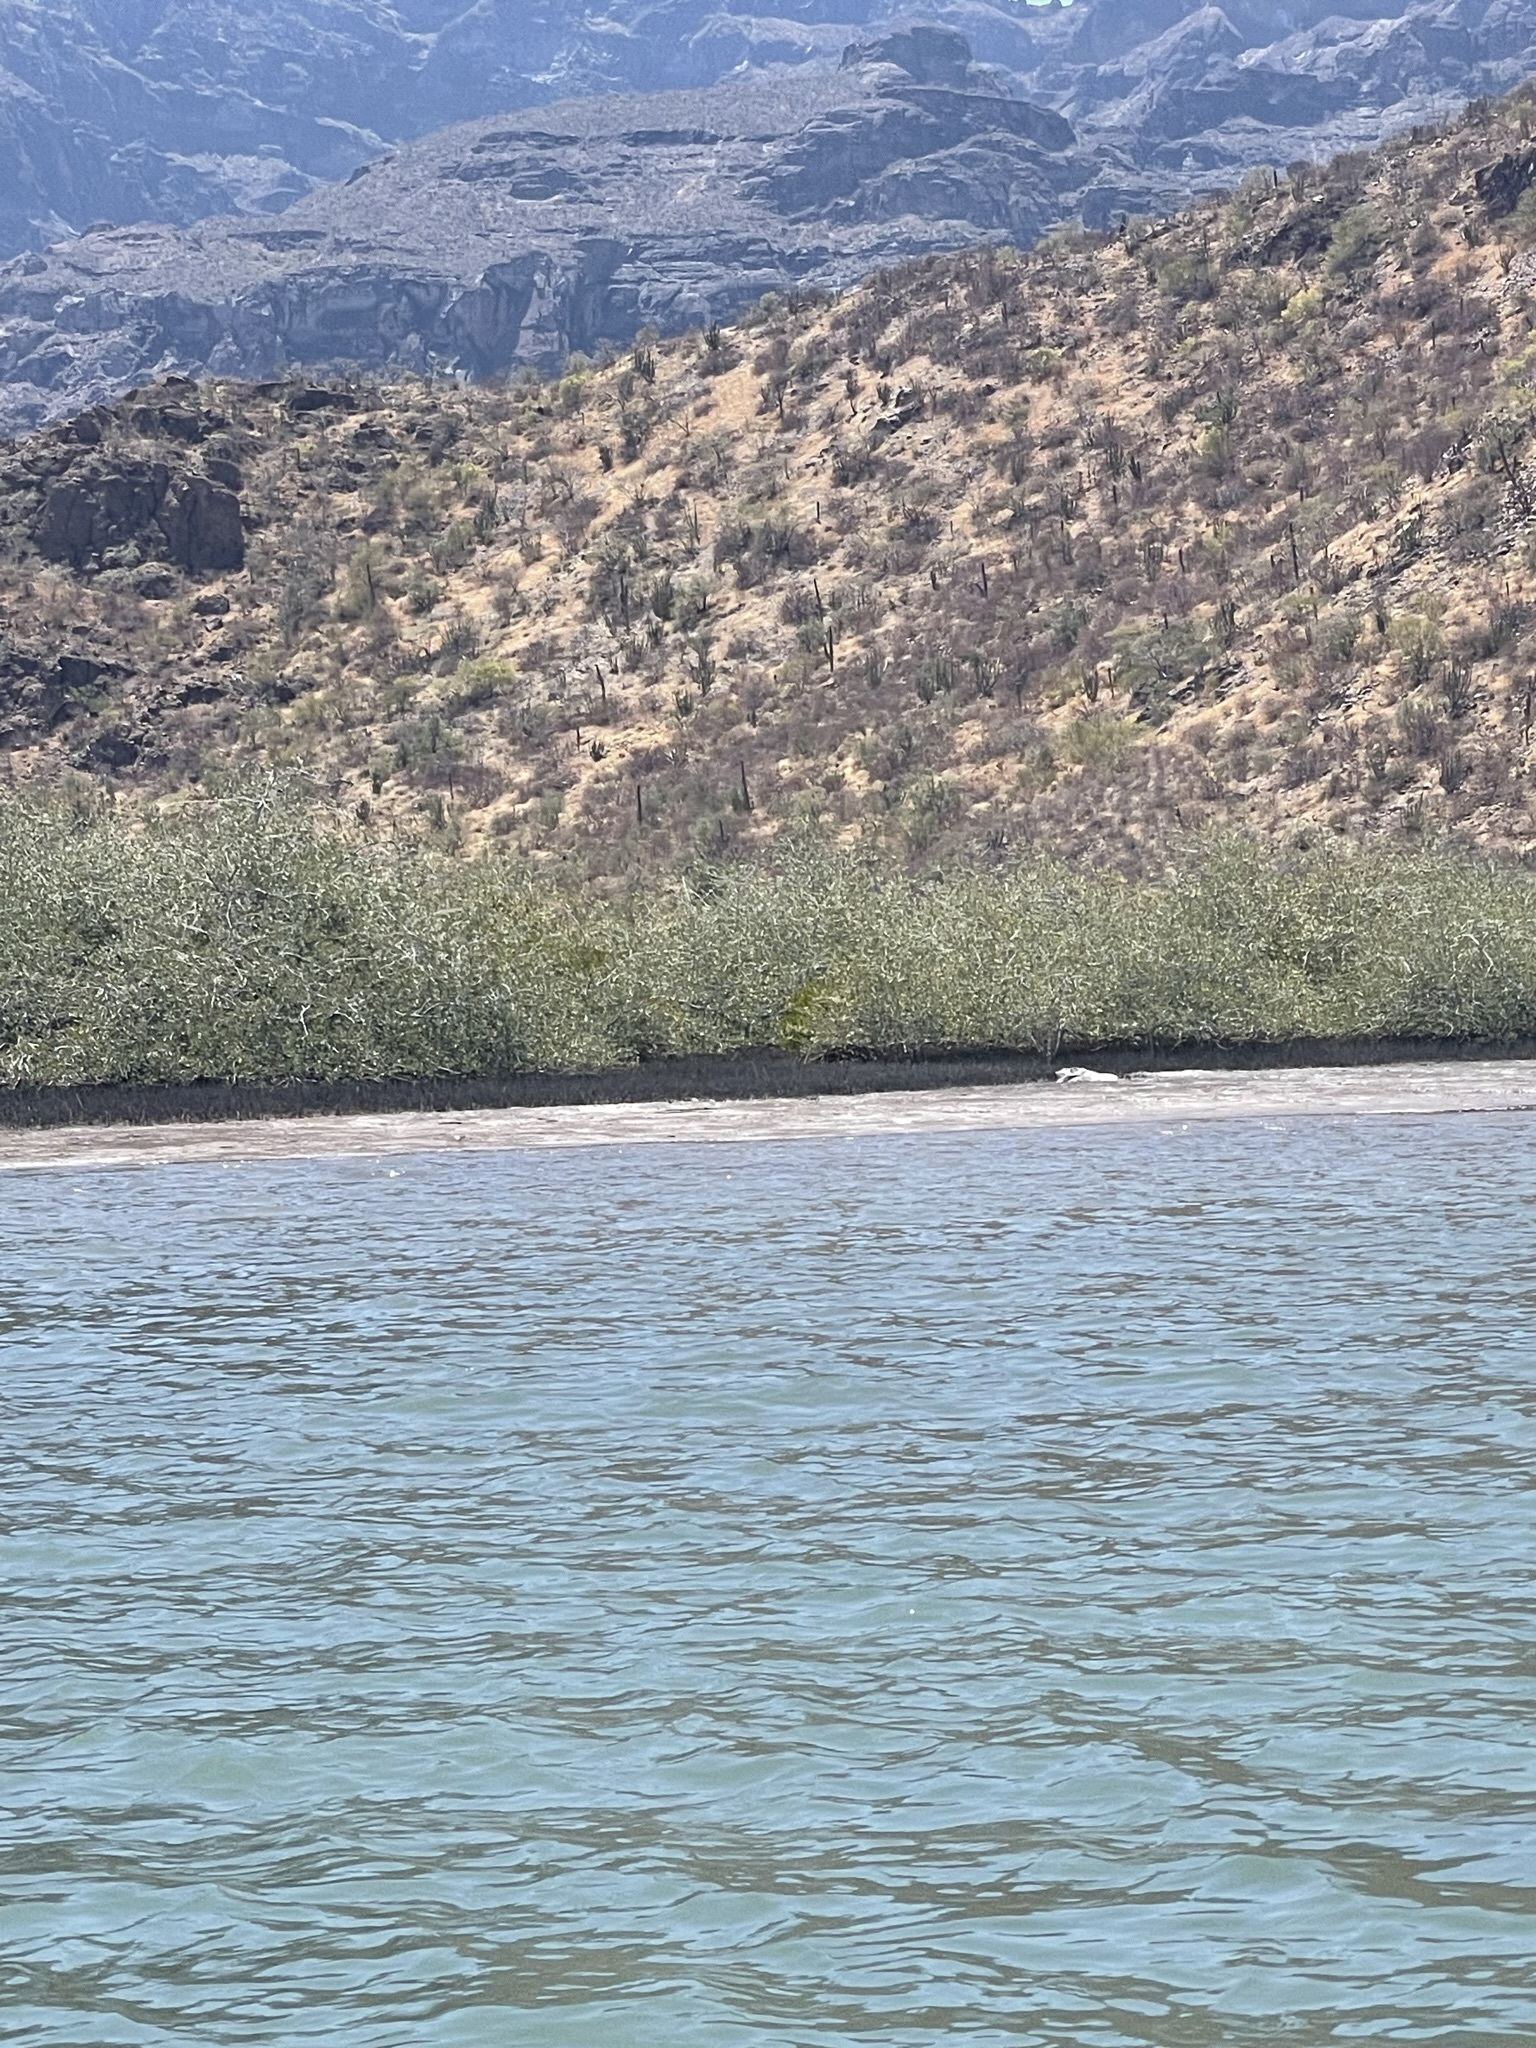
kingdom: Plantae
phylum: Tracheophyta
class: Magnoliopsida
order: Lamiales
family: Acanthaceae
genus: Avicennia
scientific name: Avicennia germinans
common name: Black mangrove
